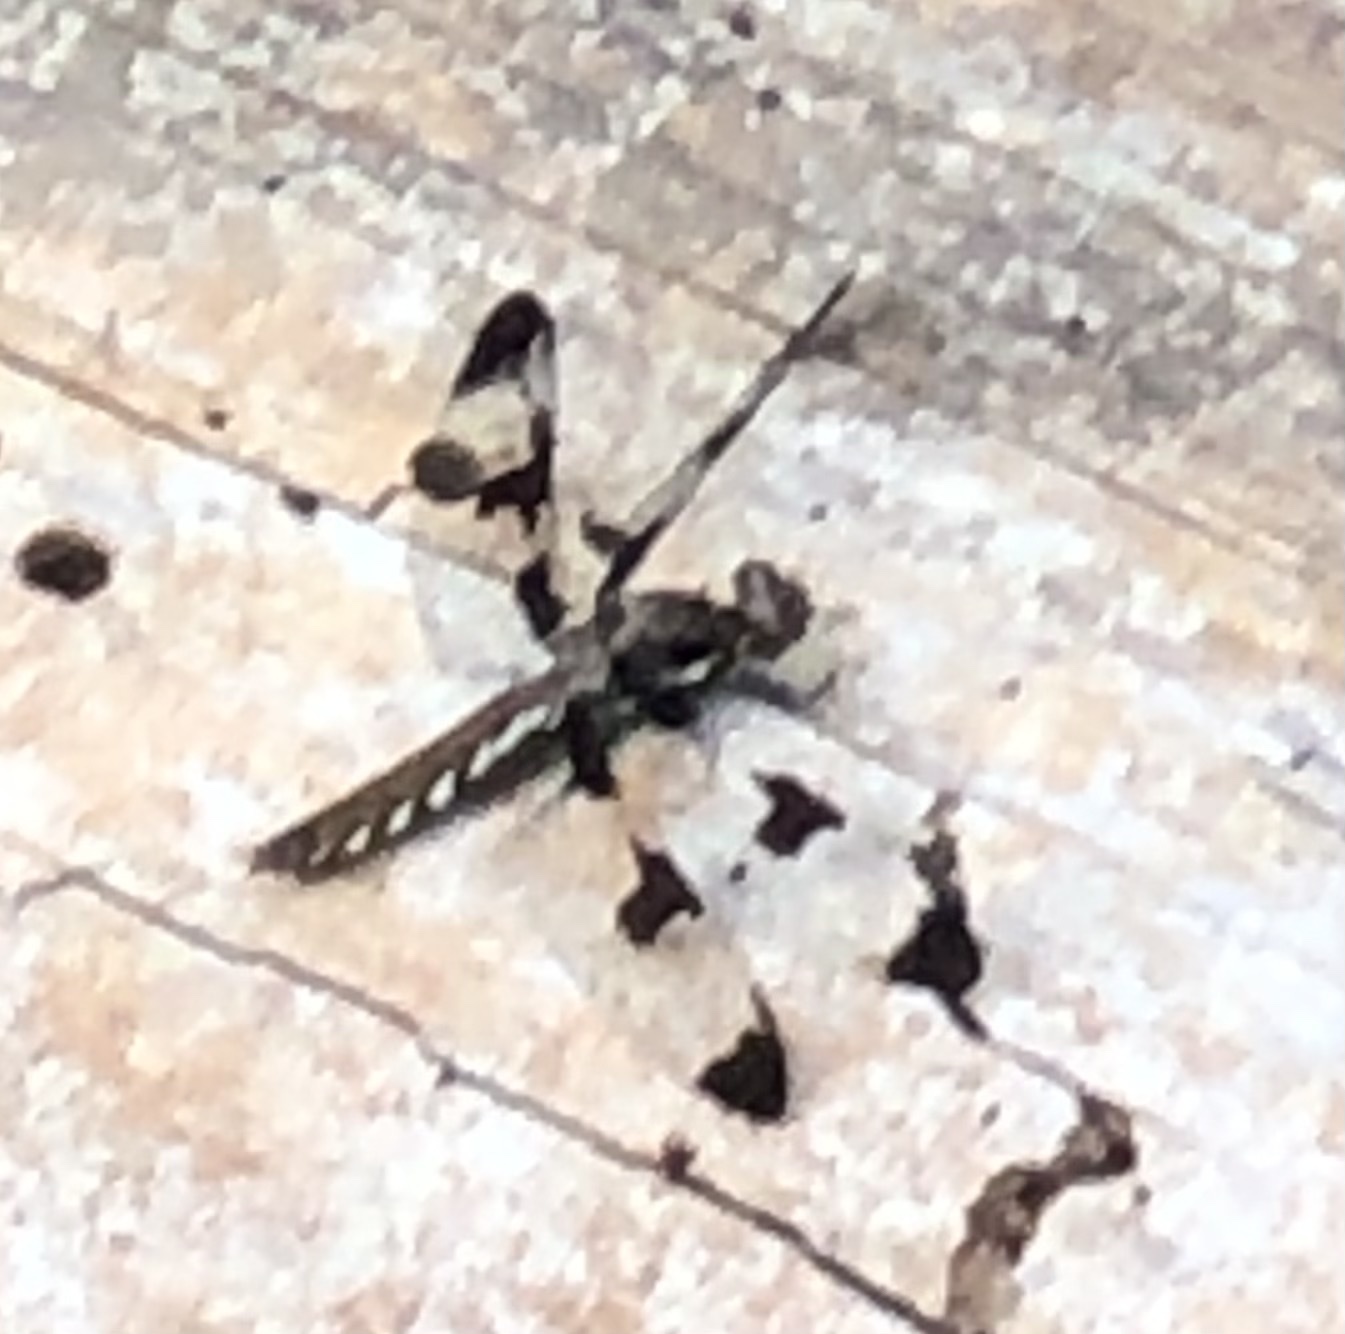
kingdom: Animalia
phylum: Arthropoda
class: Insecta
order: Odonata
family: Libellulidae
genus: Plathemis
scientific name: Plathemis lydia
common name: Common whitetail
